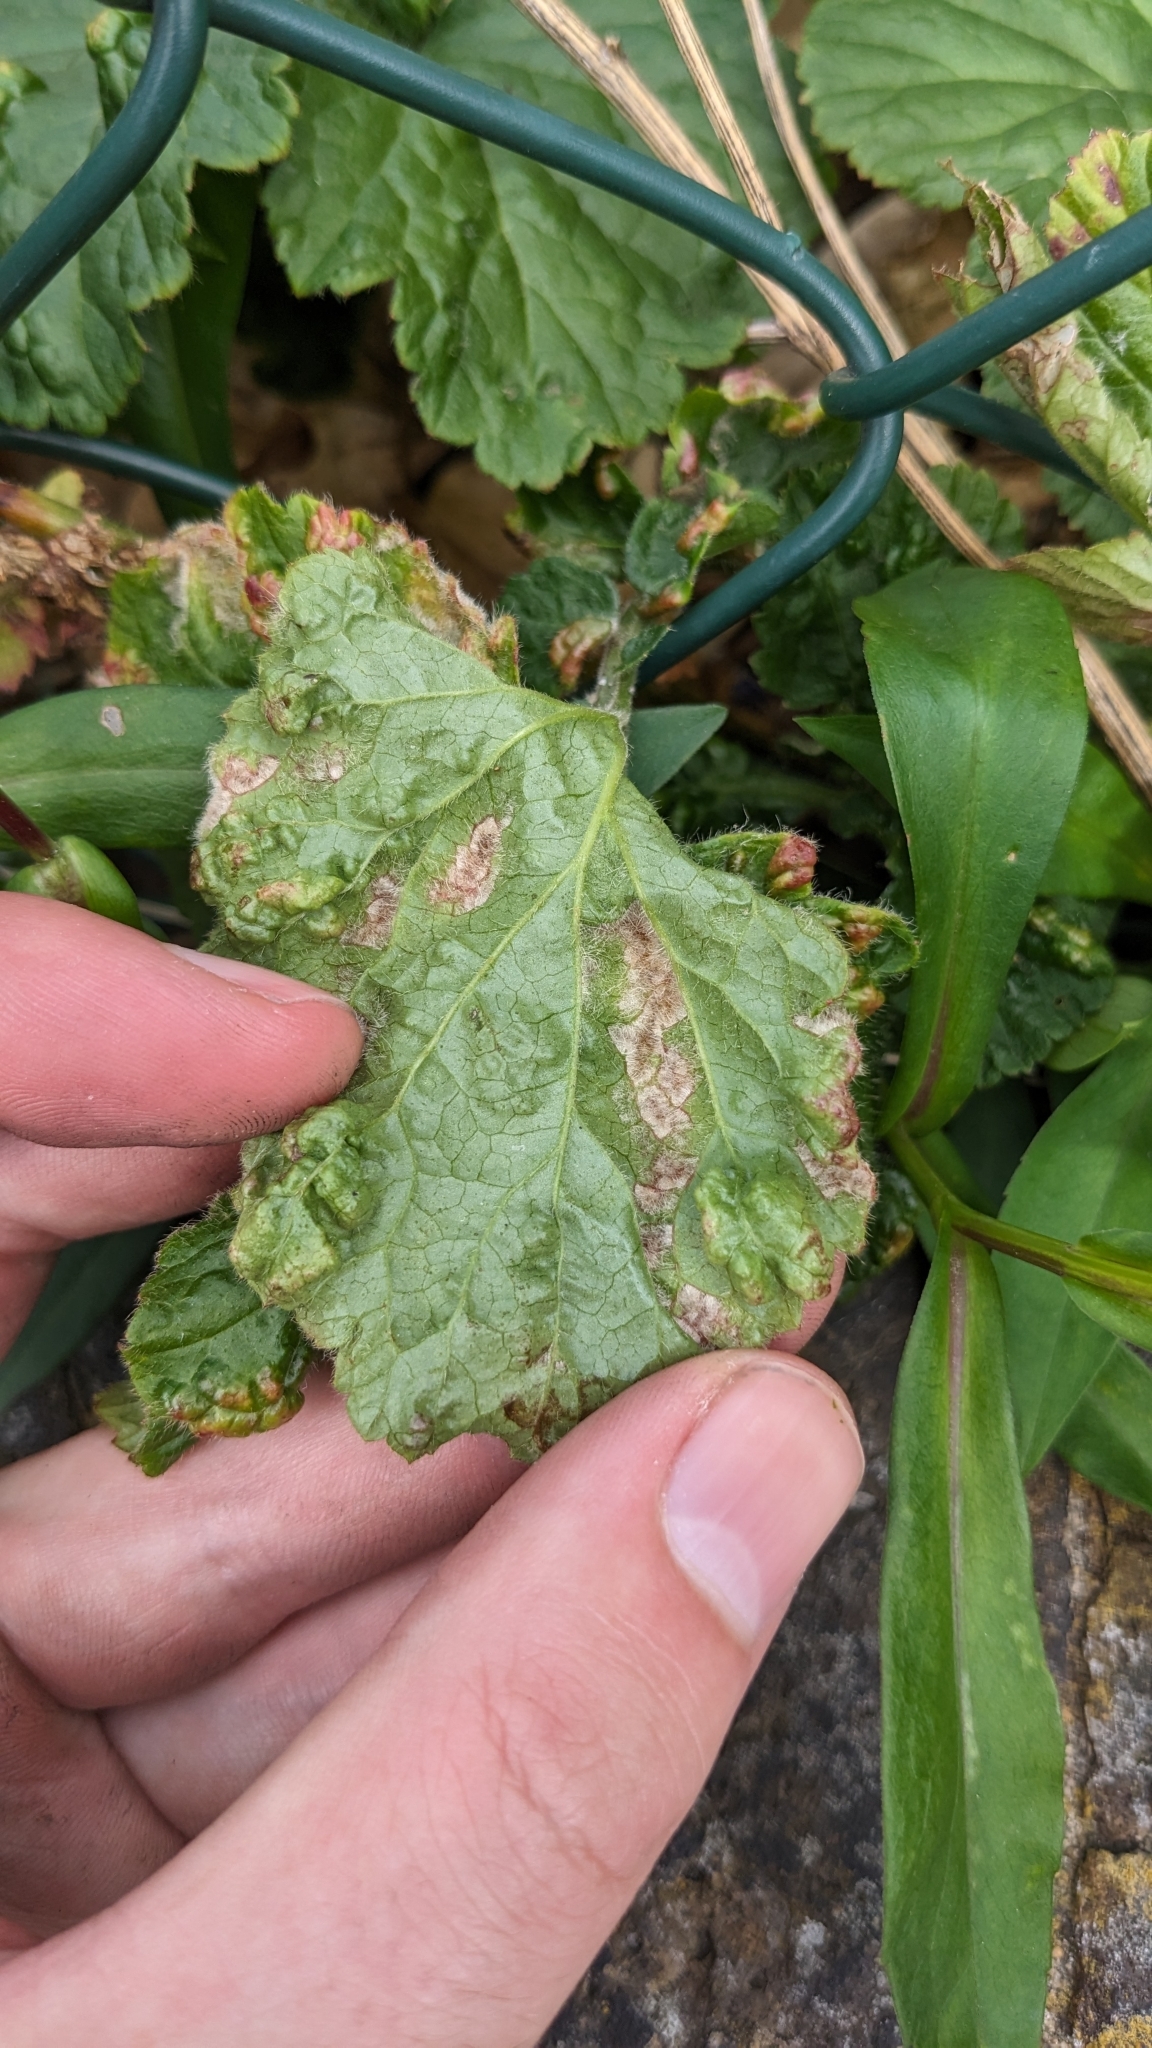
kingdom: Animalia
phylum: Arthropoda
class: Arachnida
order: Trombidiformes
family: Eriophyidae
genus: Cecidophyes
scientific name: Cecidophyes nudus
